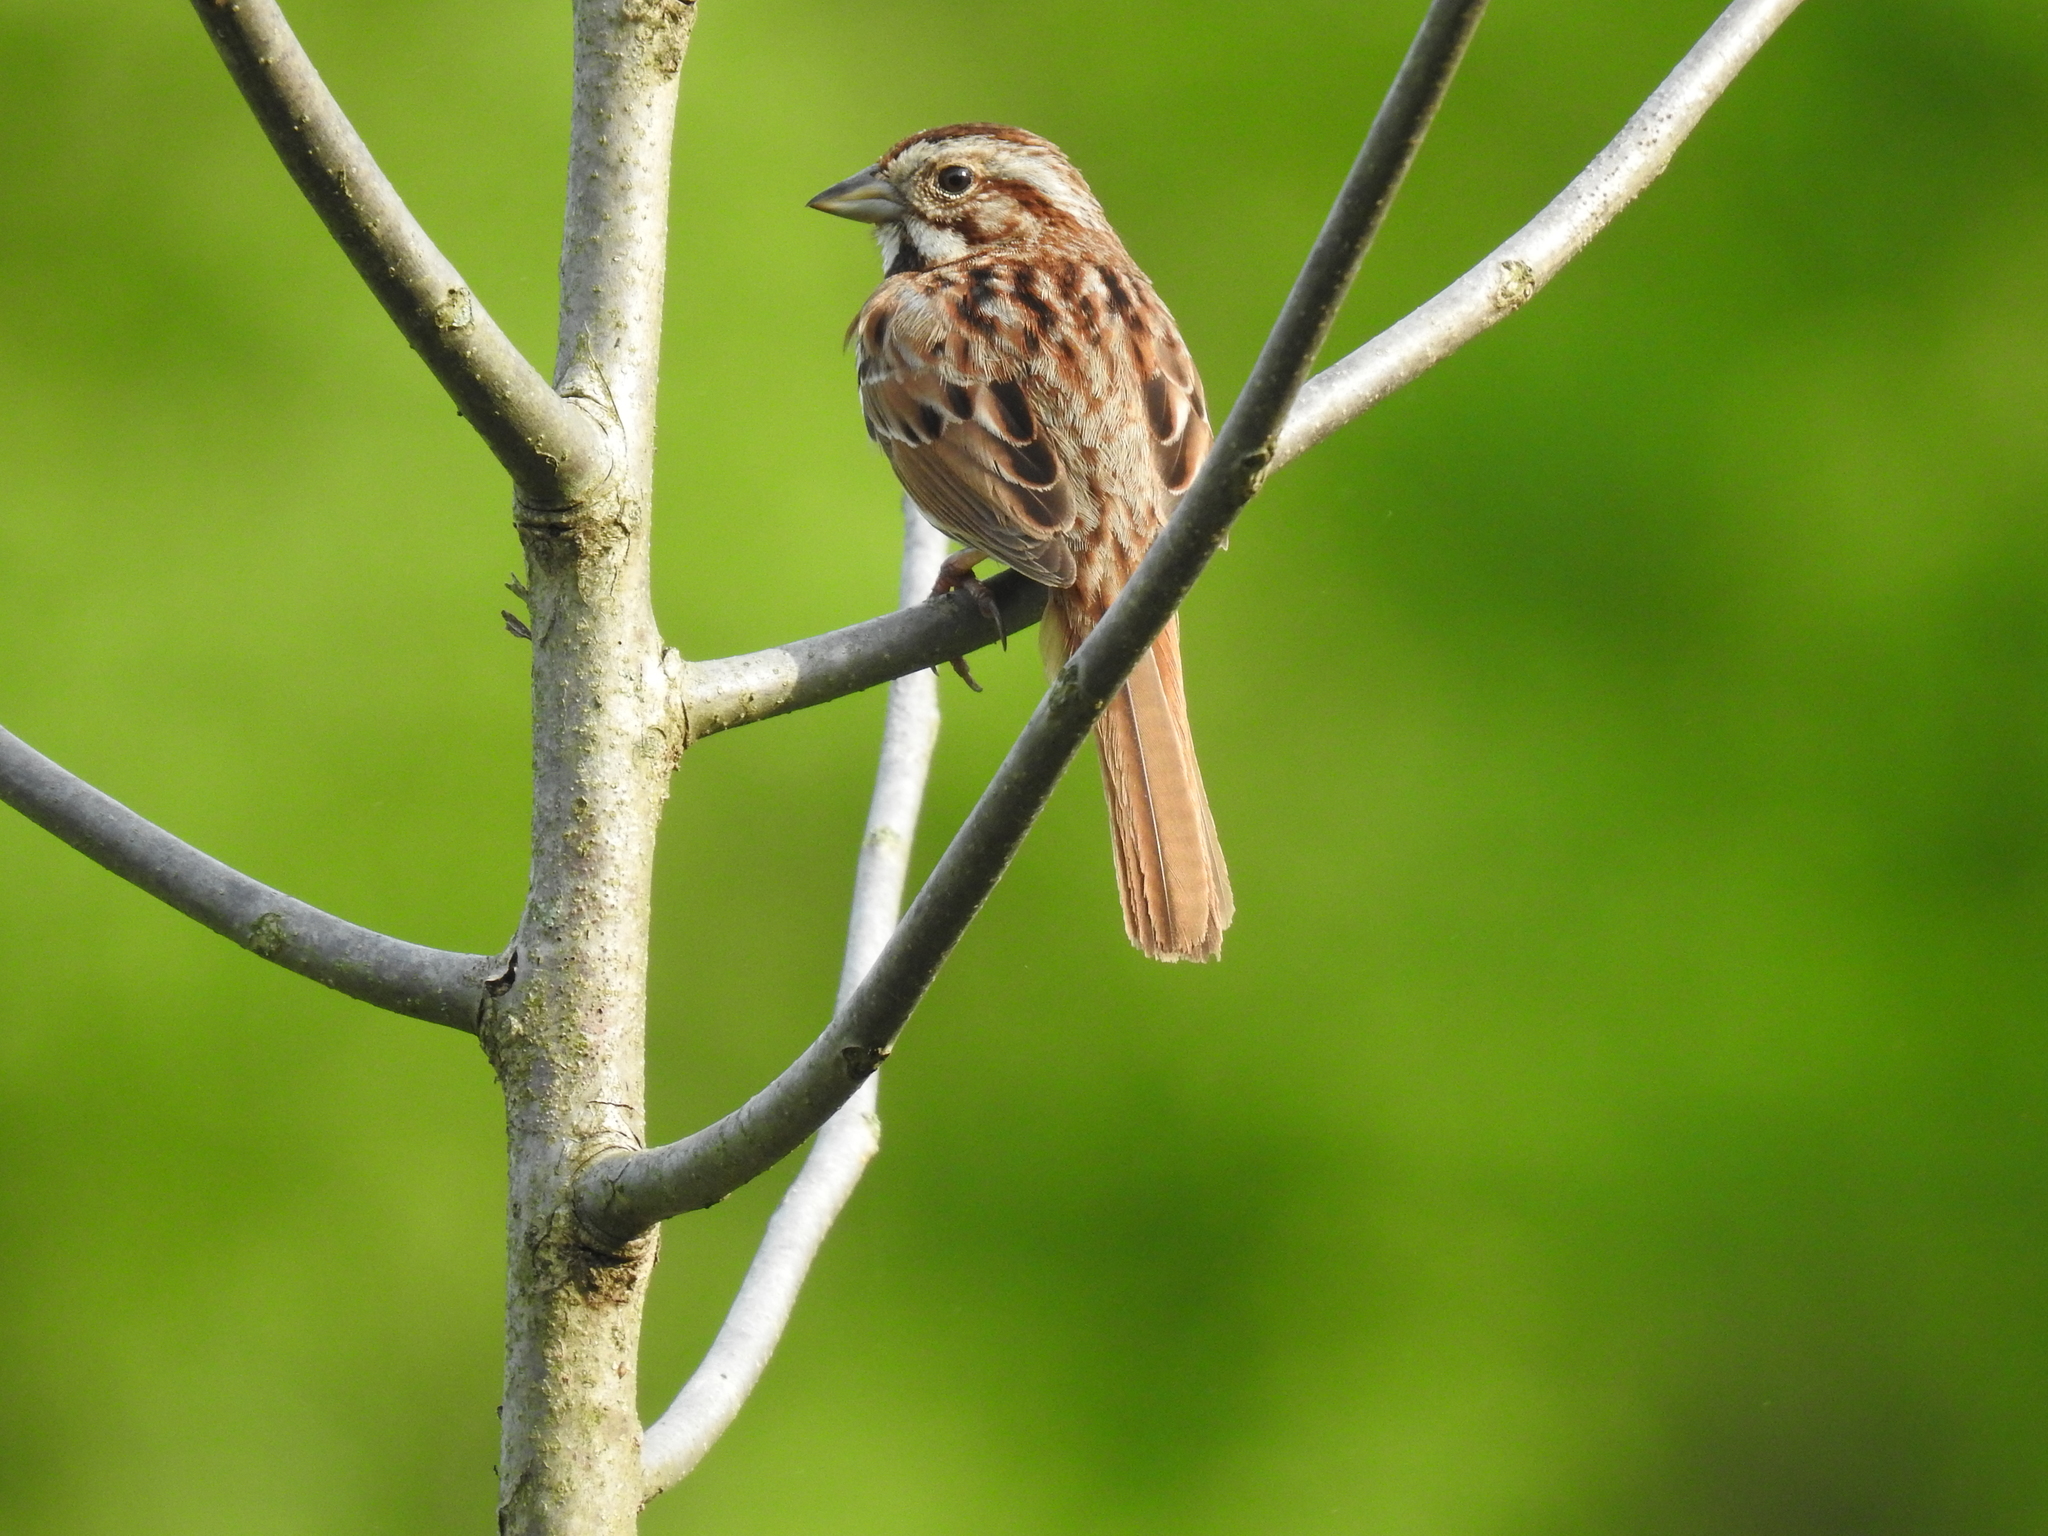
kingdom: Animalia
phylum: Chordata
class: Aves
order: Passeriformes
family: Passerellidae
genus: Melospiza
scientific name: Melospiza melodia
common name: Song sparrow
